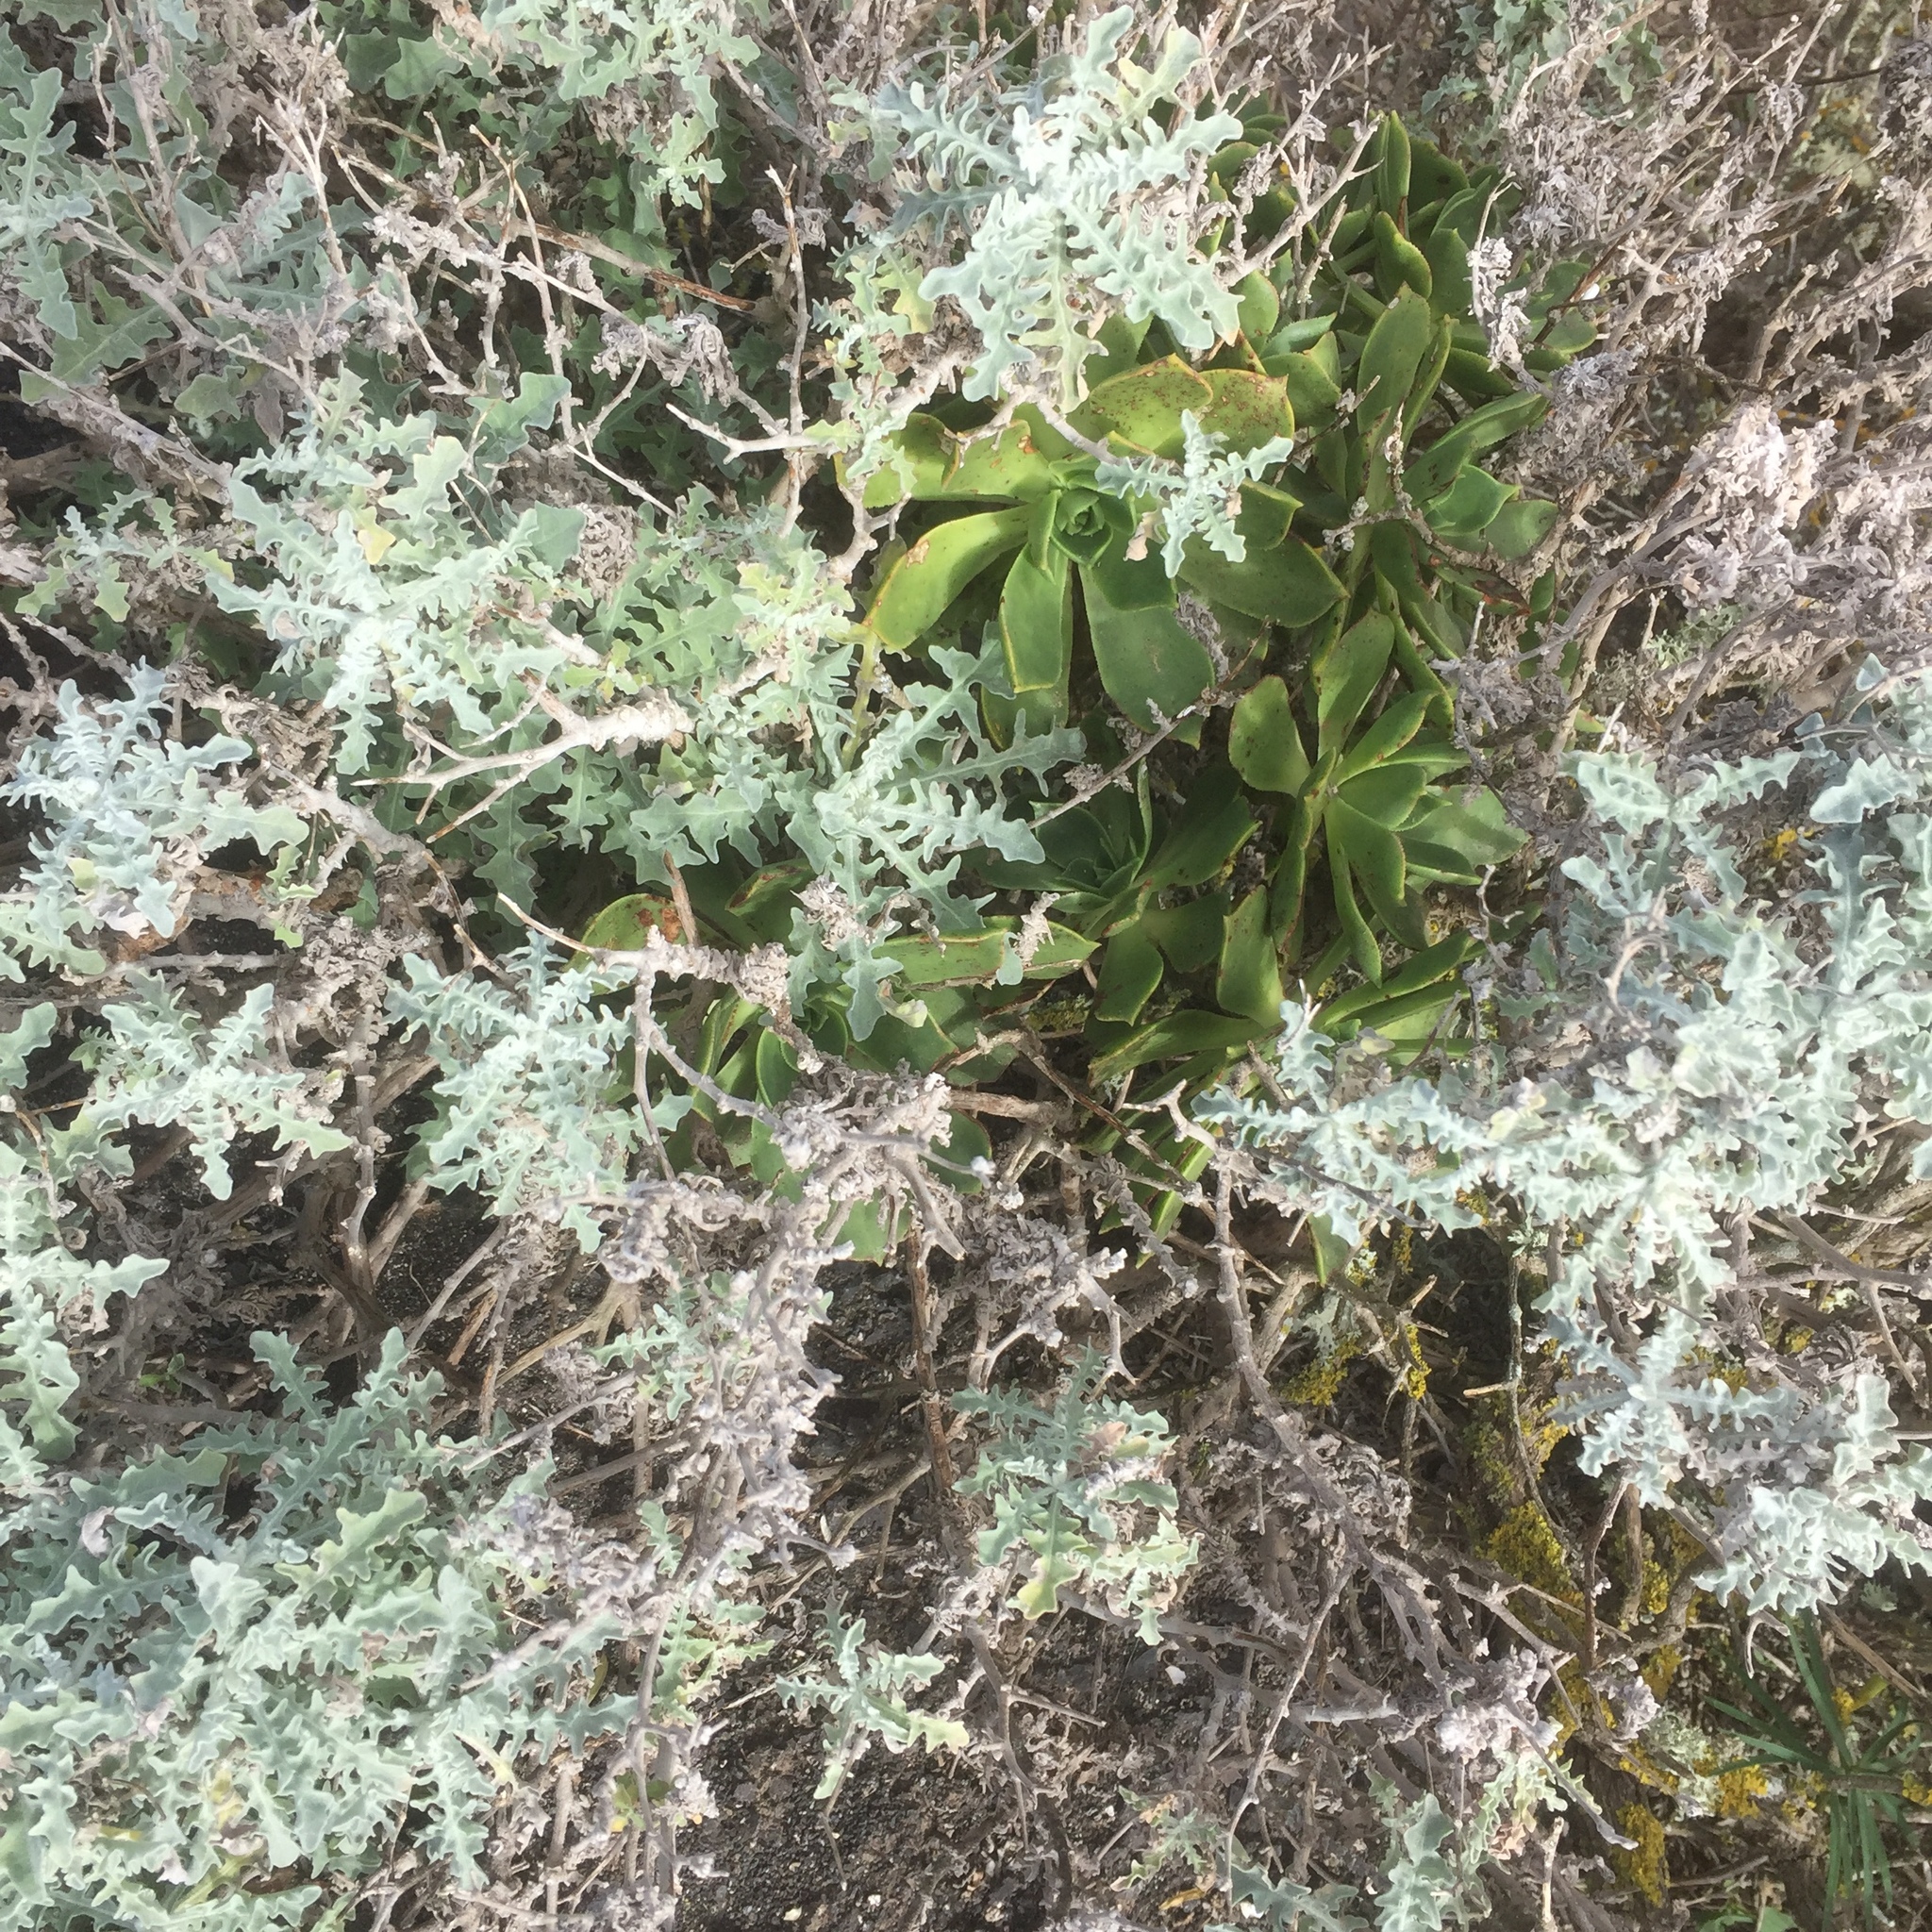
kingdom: Plantae
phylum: Tracheophyta
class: Magnoliopsida
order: Saxifragales
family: Crassulaceae
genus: Aeonium
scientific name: Aeonium balsamiferum
